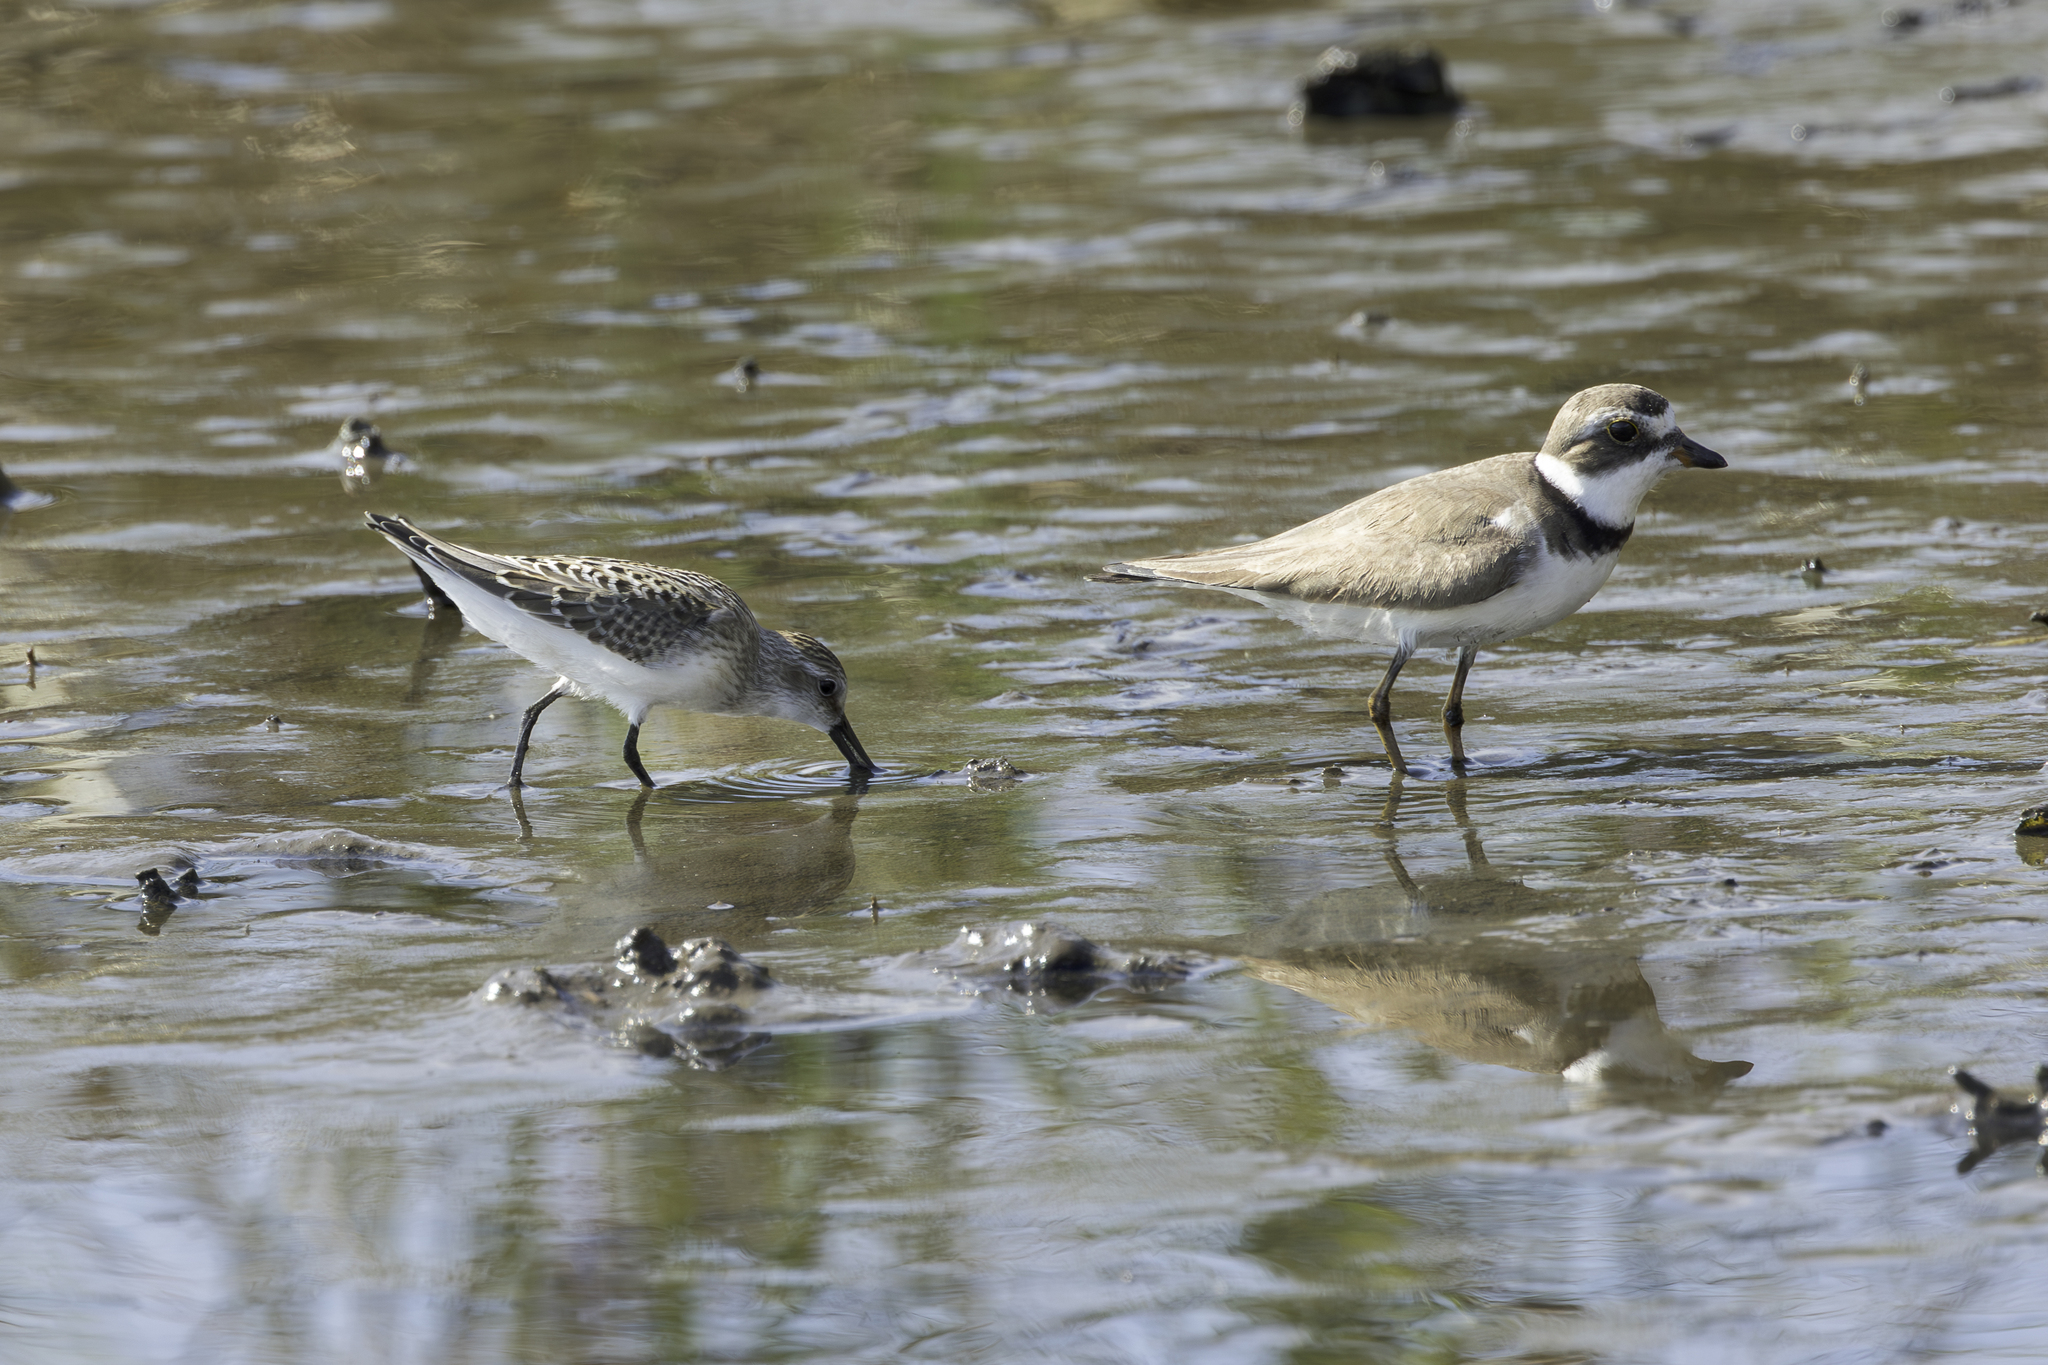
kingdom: Animalia
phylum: Chordata
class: Aves
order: Charadriiformes
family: Scolopacidae
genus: Calidris
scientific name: Calidris pusilla
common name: Semipalmated sandpiper
